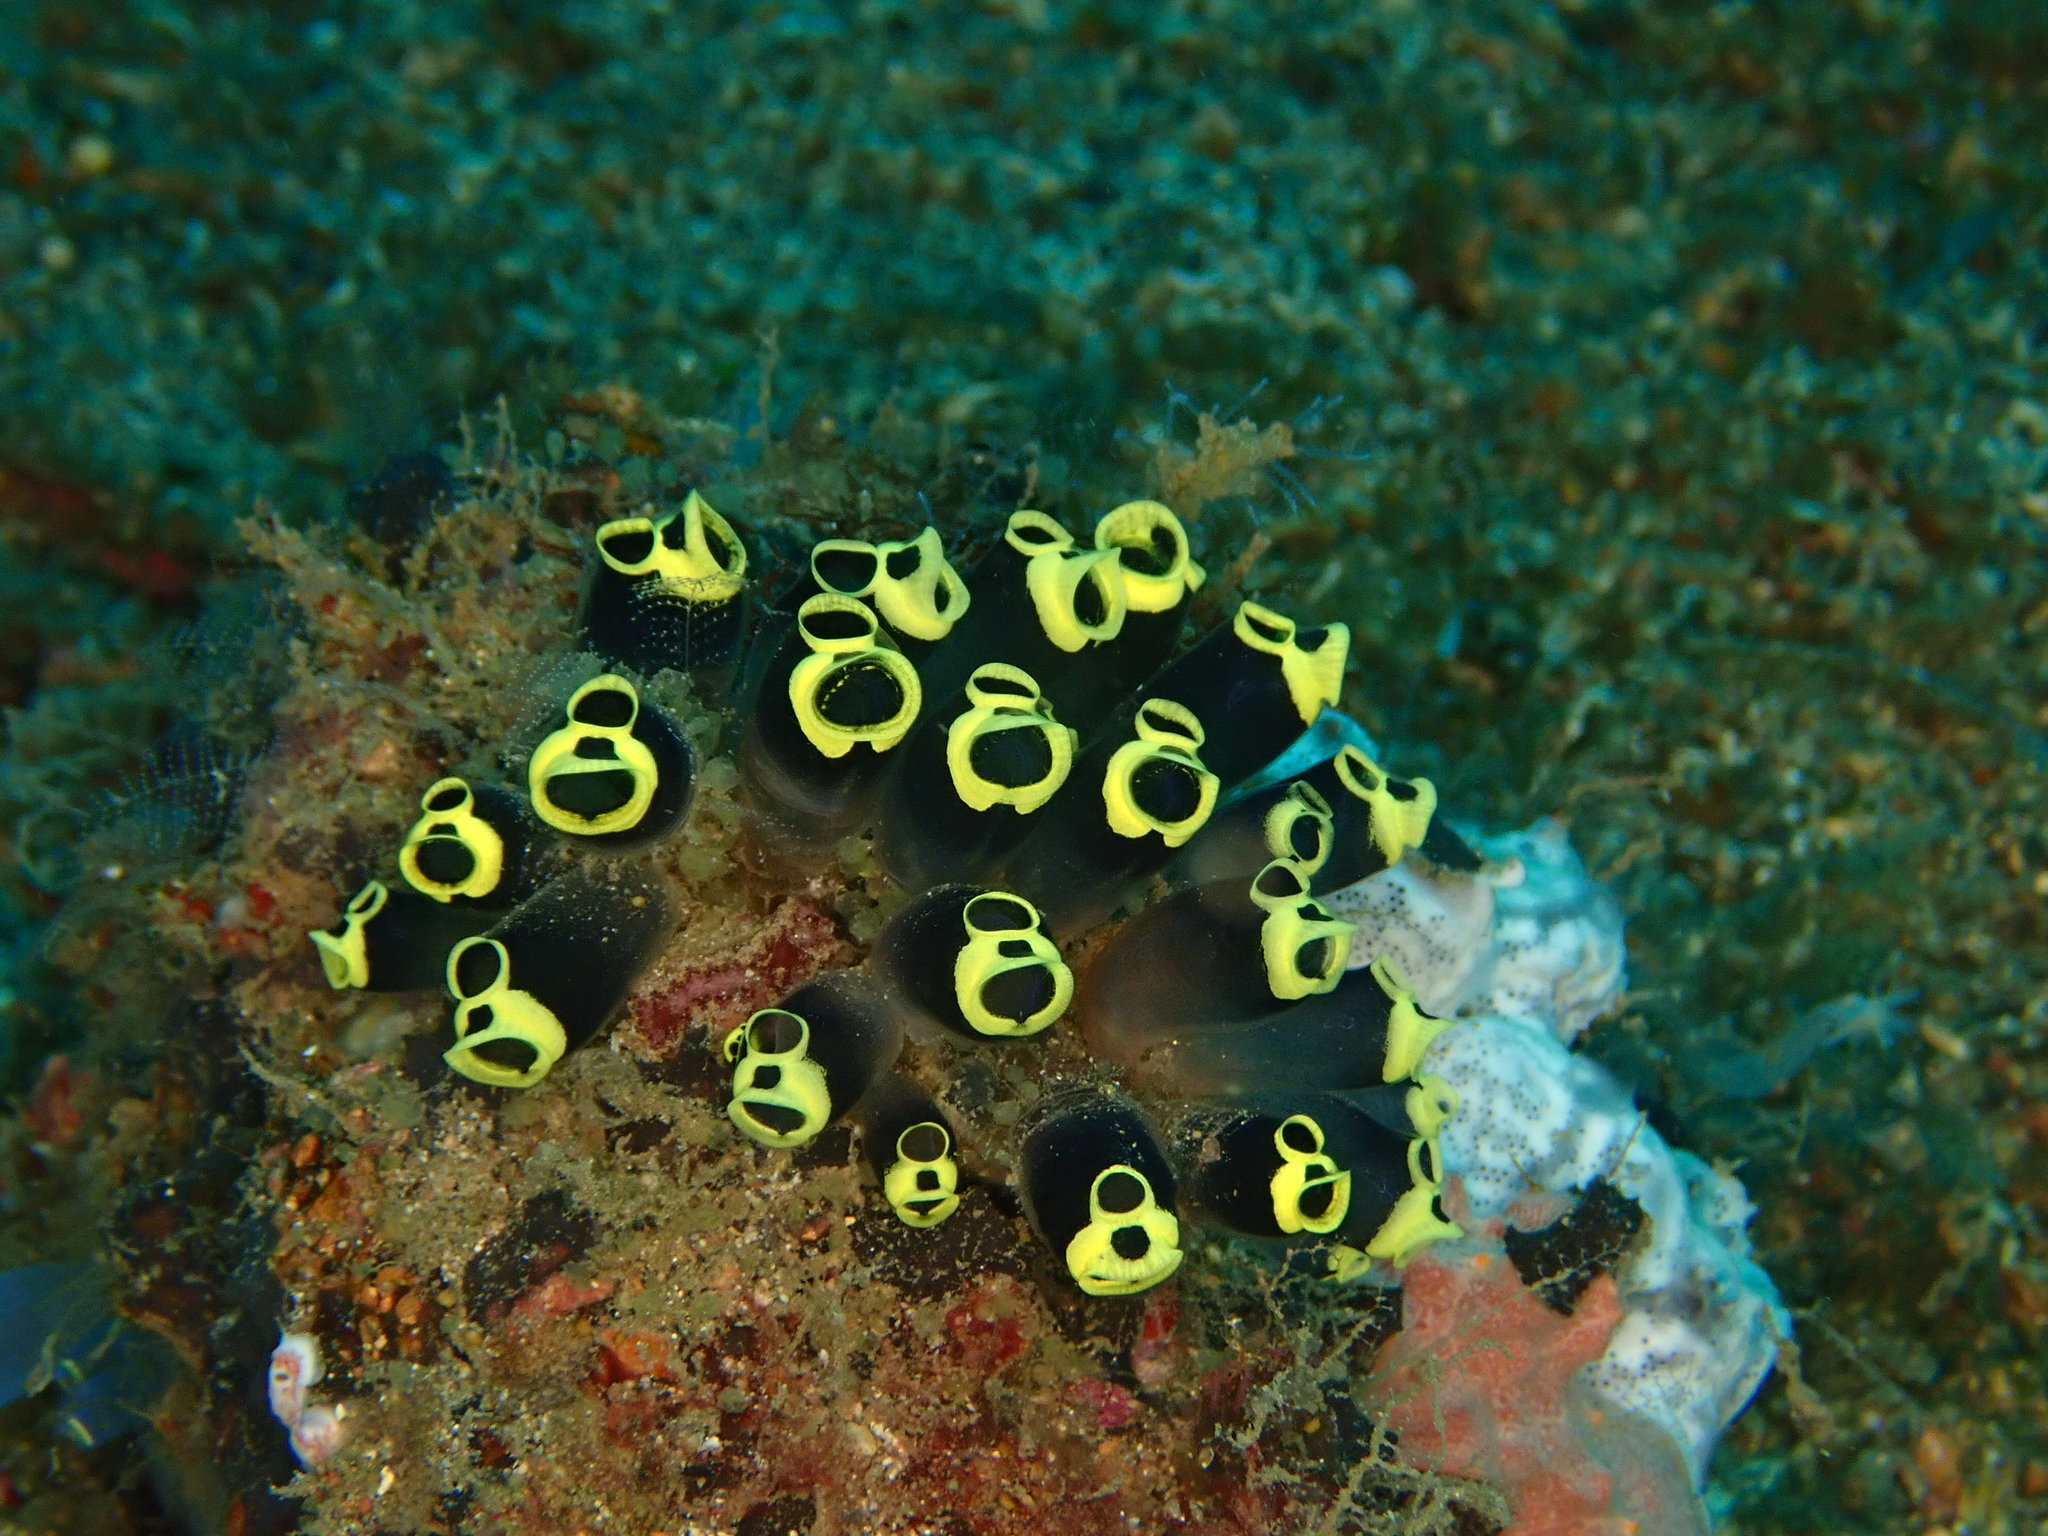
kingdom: Animalia
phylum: Chordata
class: Ascidiacea
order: Aplousobranchia
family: Clavelinidae
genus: Clavelina
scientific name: Clavelina robusta
